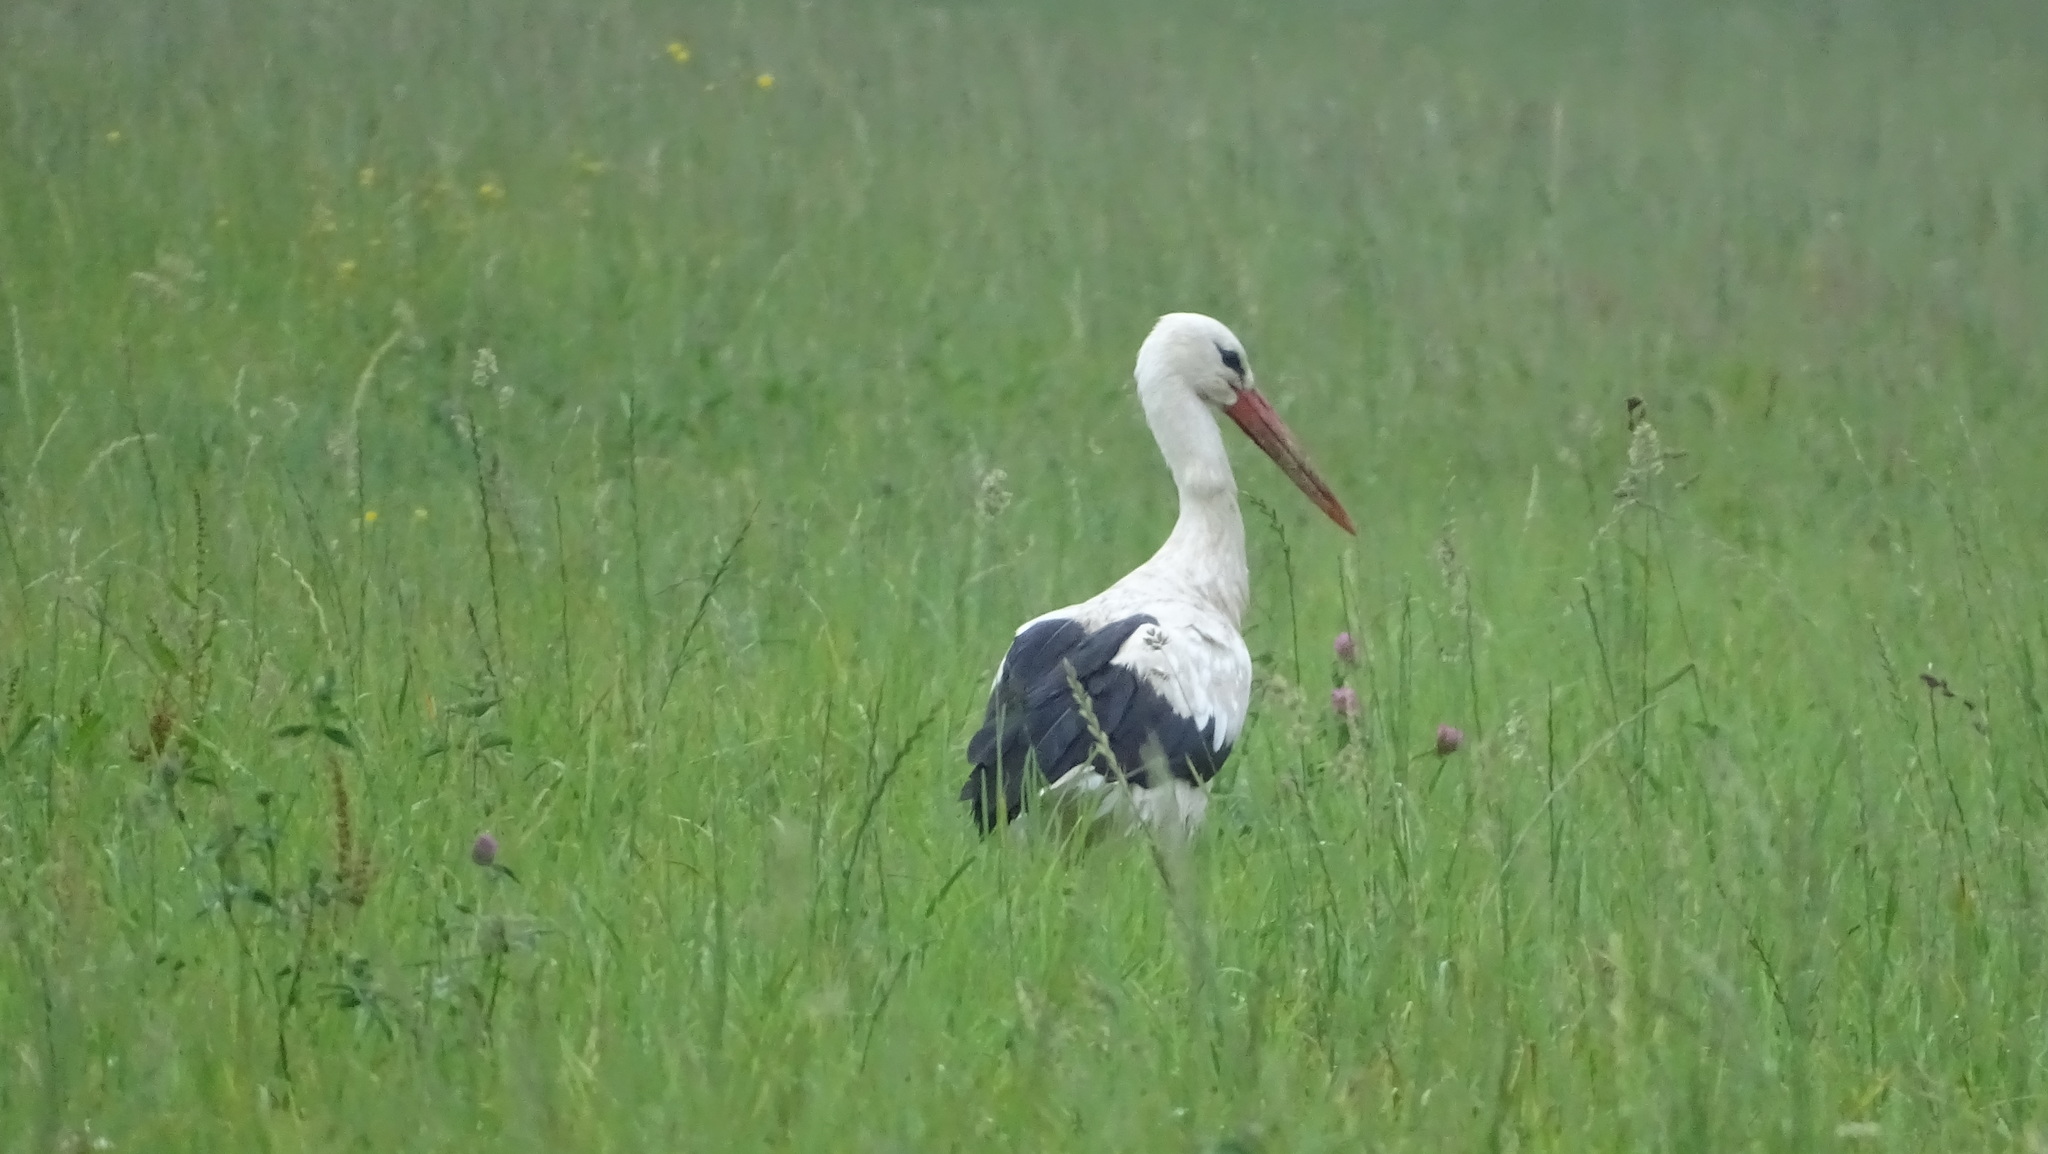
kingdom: Animalia
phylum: Chordata
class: Aves
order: Ciconiiformes
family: Ciconiidae
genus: Ciconia
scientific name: Ciconia ciconia
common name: White stork
